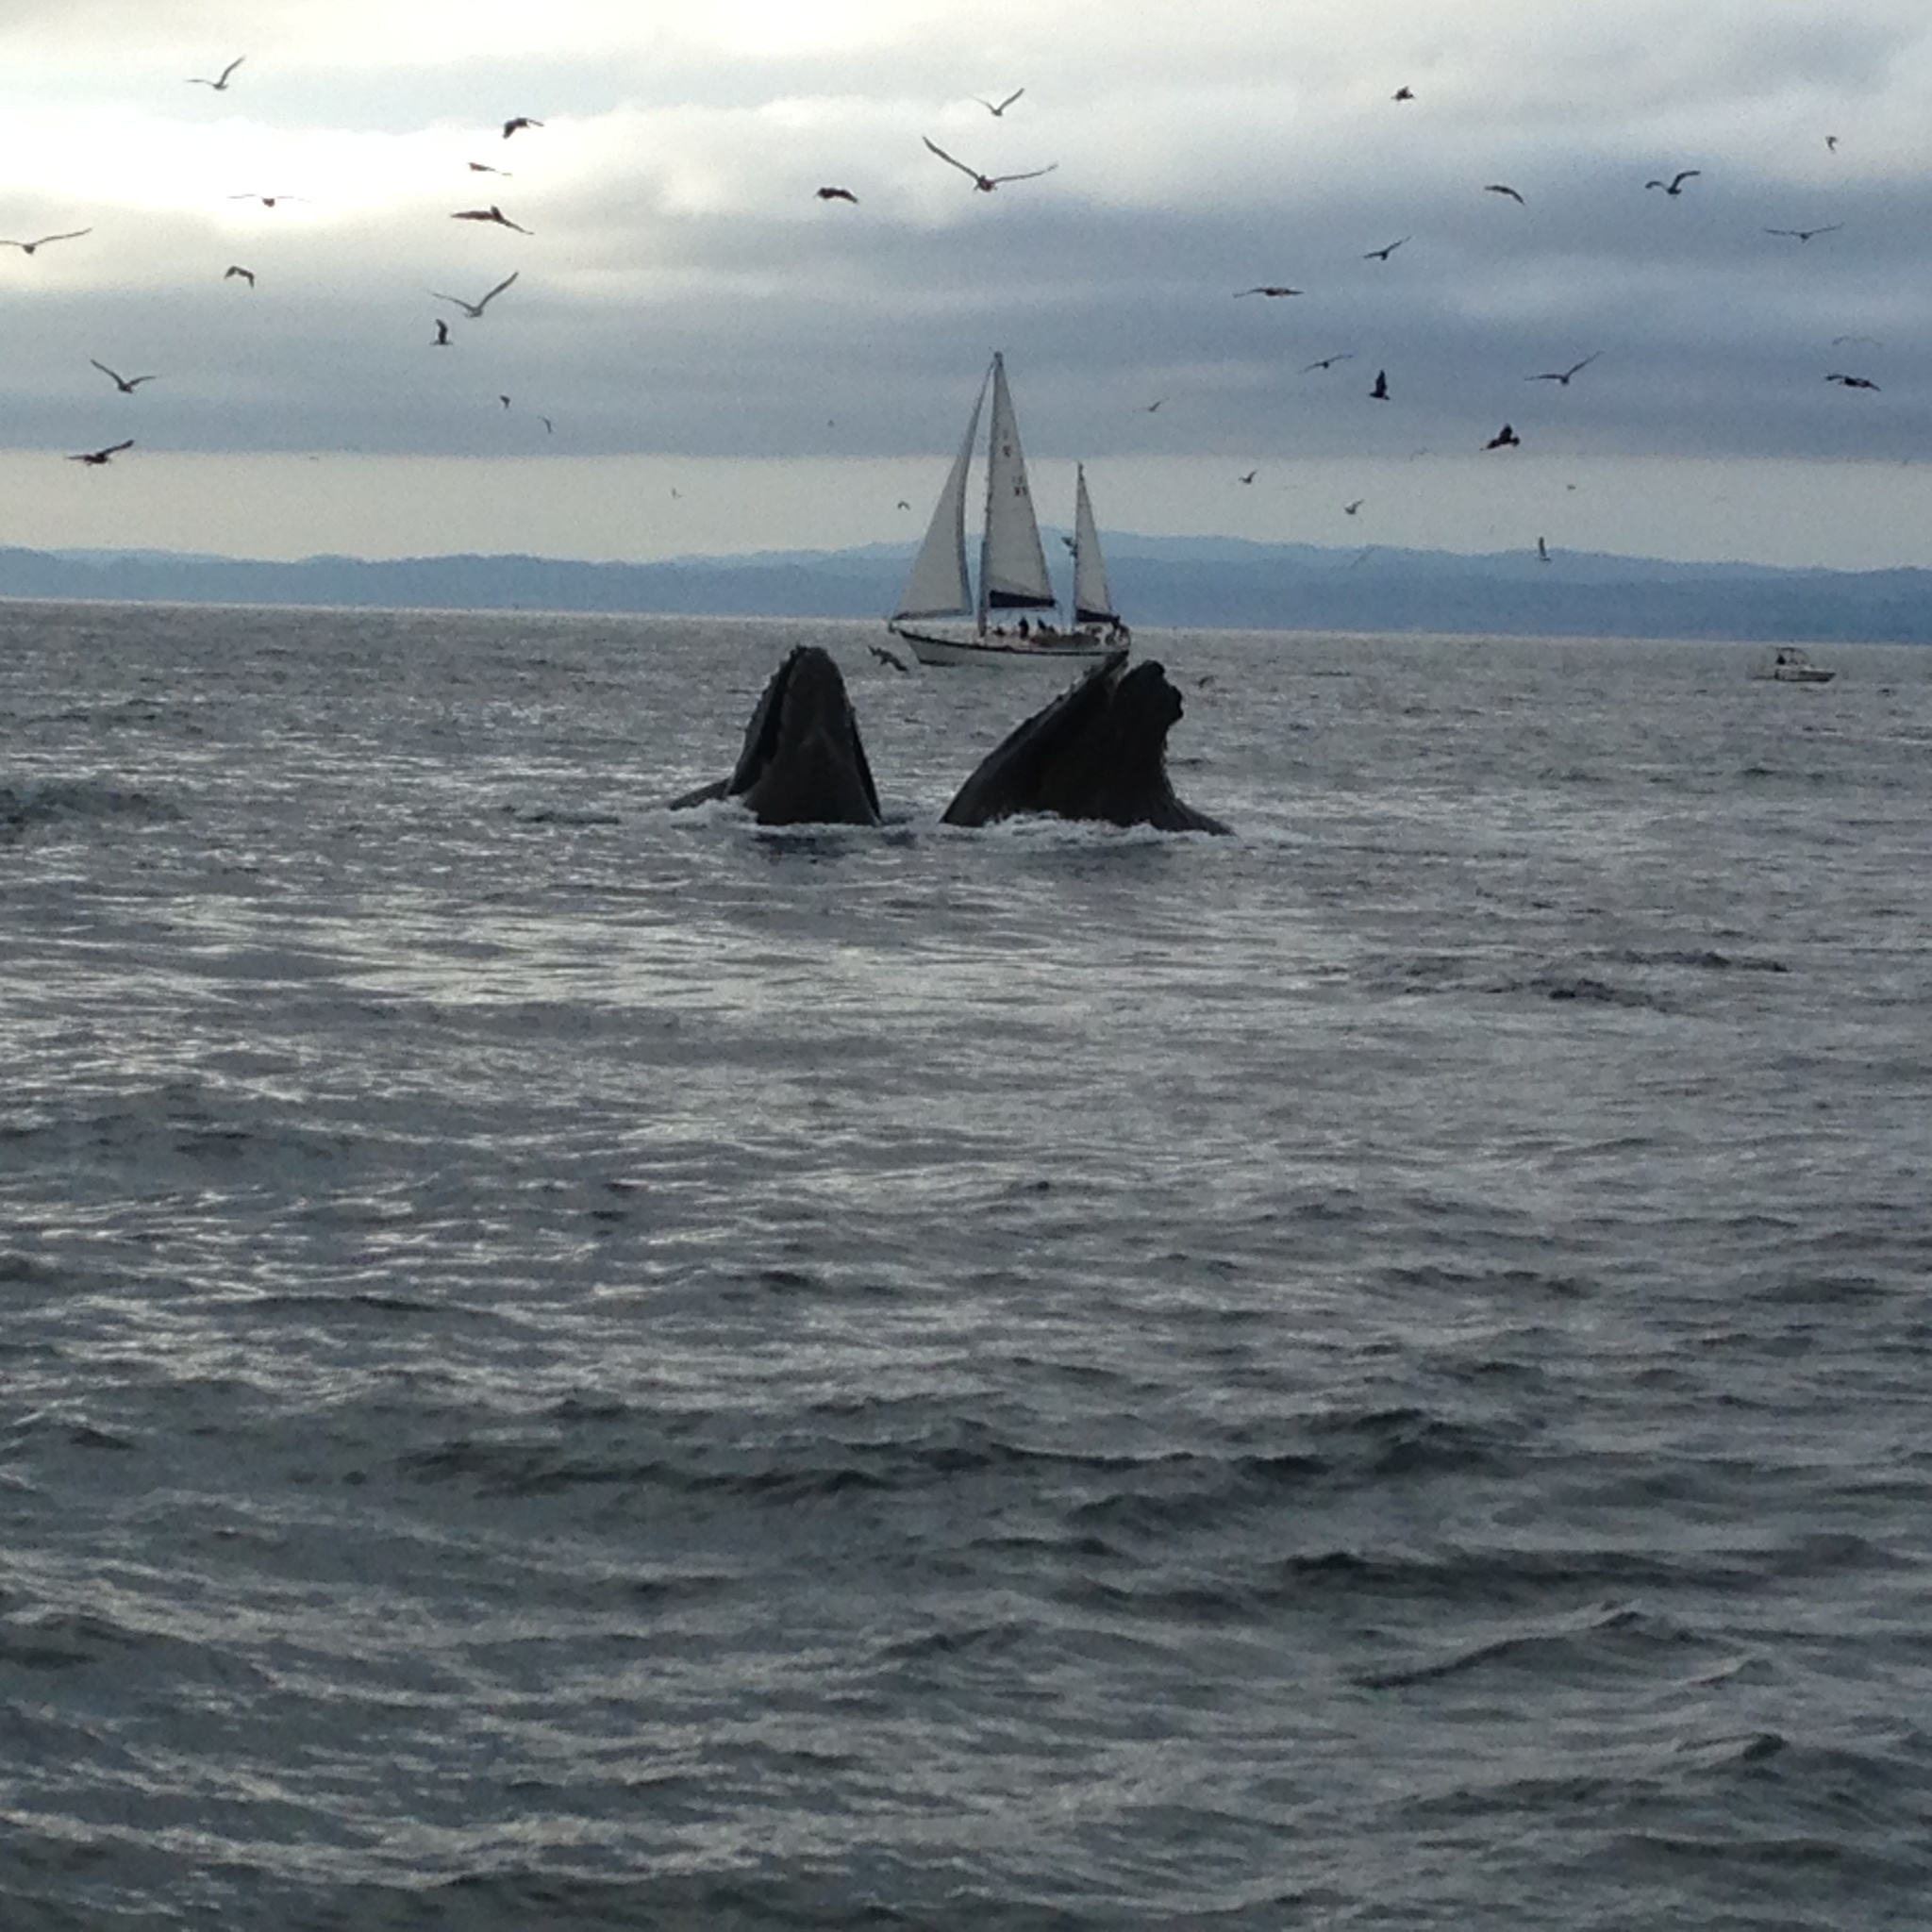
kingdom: Animalia
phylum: Chordata
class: Mammalia
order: Cetacea
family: Balaenopteridae
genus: Megaptera
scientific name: Megaptera novaeangliae
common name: Humpback whale
